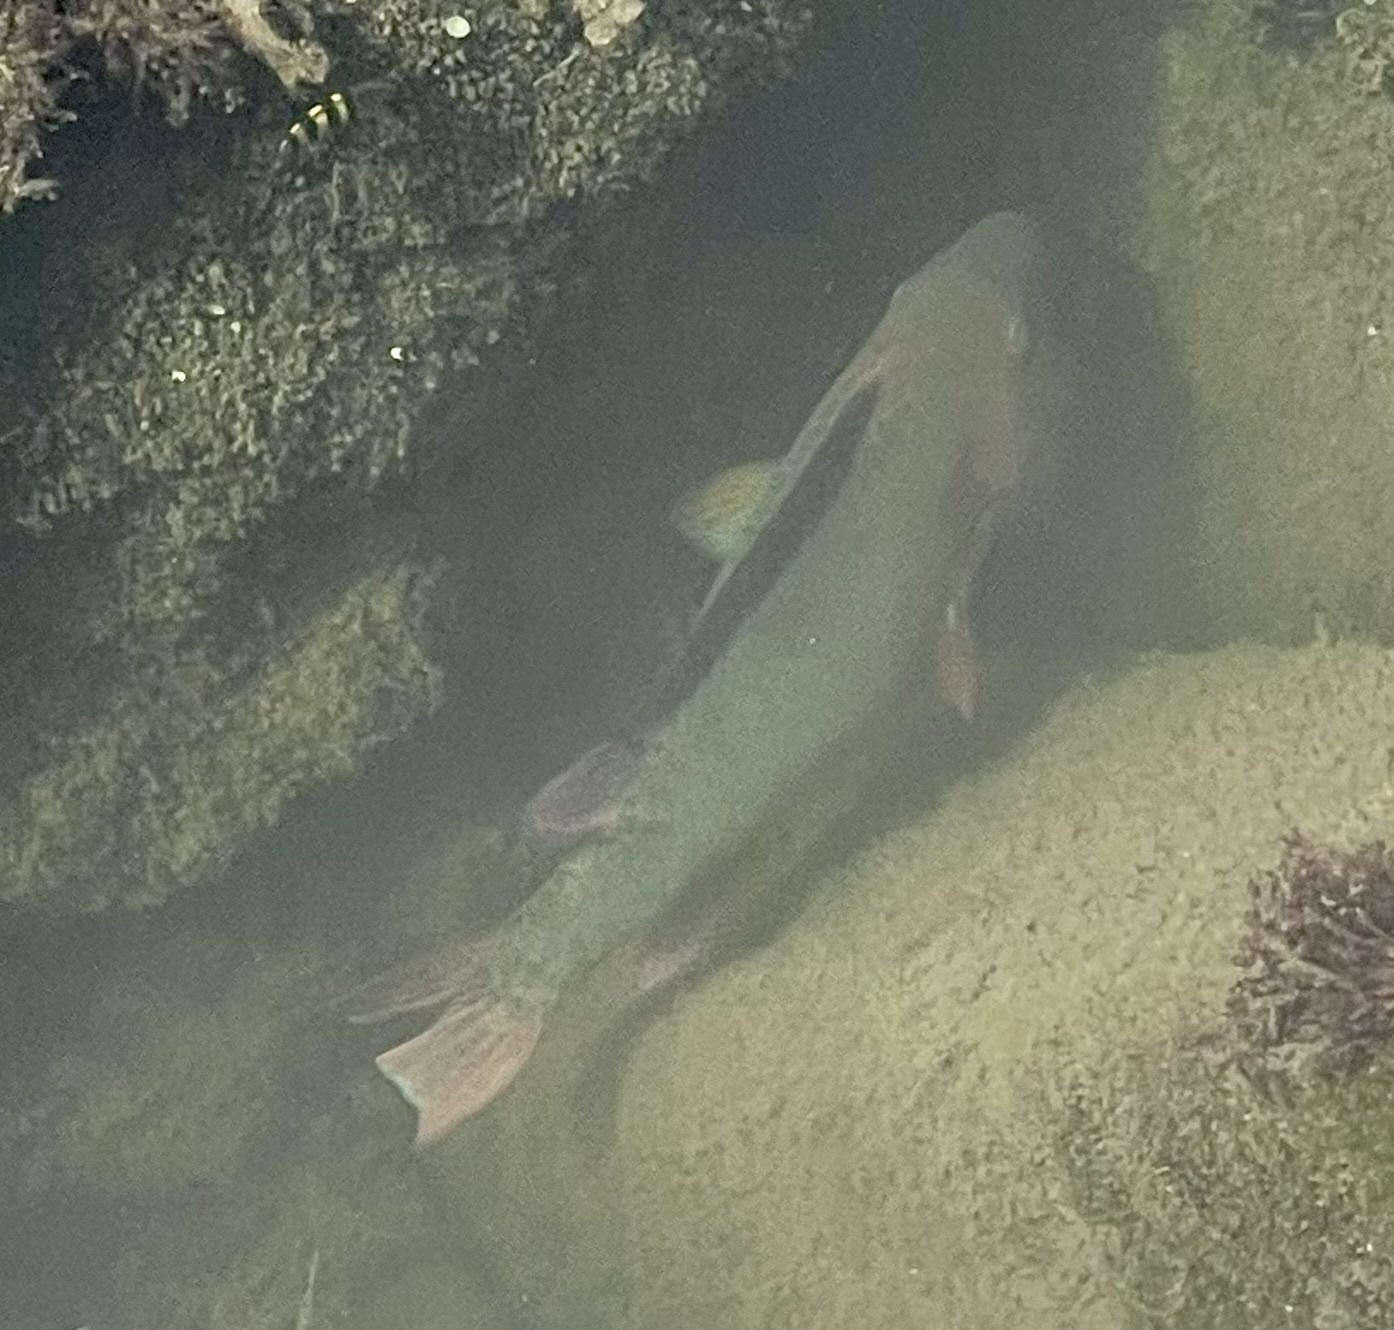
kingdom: Animalia
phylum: Chordata
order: Perciformes
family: Scaridae
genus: Scarus
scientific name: Scarus guacamaia
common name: Rainbow parrotfish
